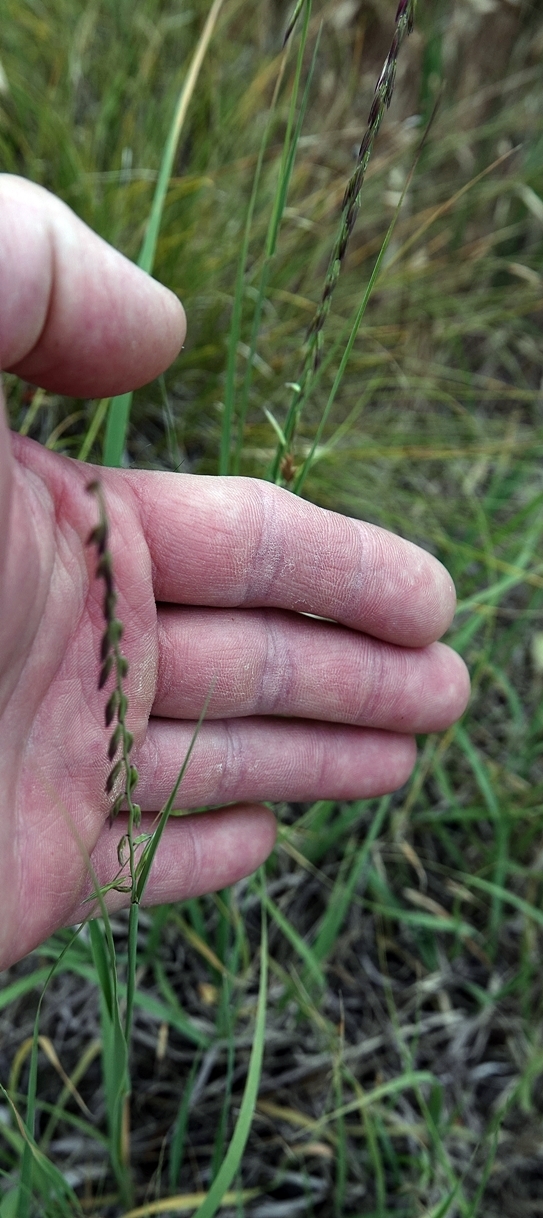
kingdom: Plantae
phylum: Tracheophyta
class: Liliopsida
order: Poales
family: Poaceae
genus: Bouteloua
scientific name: Bouteloua curtipendula
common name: Side-oats grama
